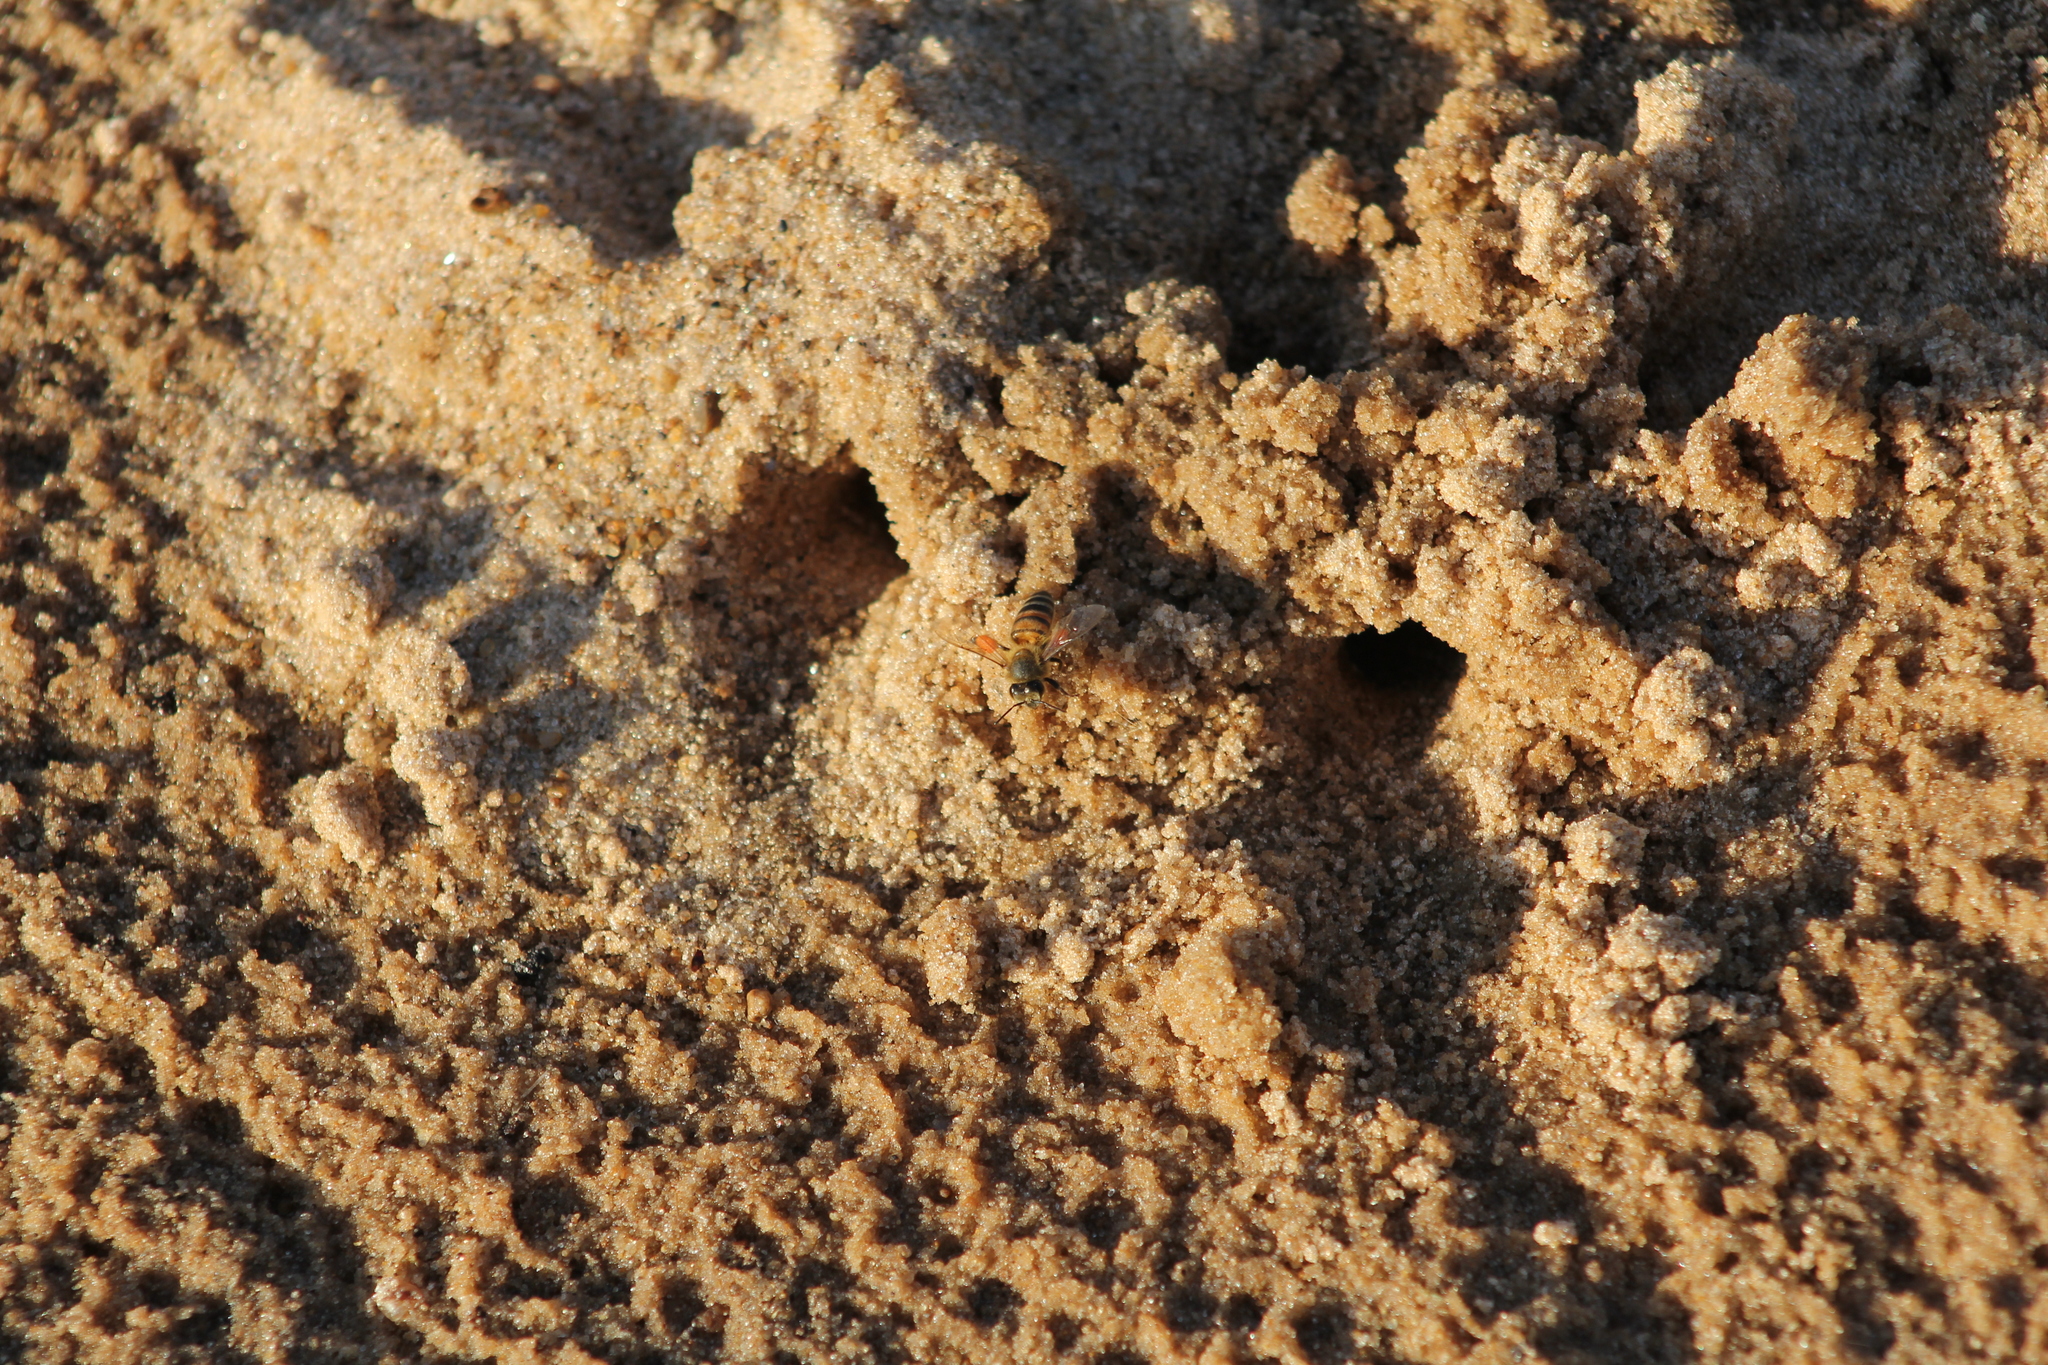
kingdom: Animalia
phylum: Arthropoda
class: Insecta
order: Hymenoptera
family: Apidae
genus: Apis
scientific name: Apis mellifera
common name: Honey bee
